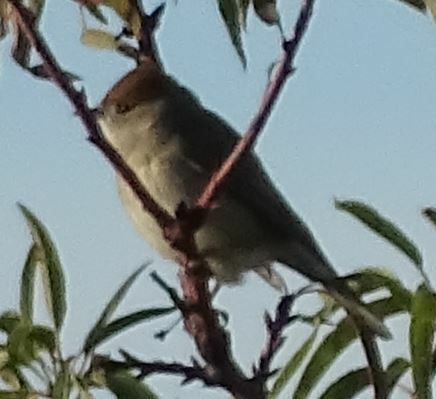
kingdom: Animalia
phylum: Chordata
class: Aves
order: Passeriformes
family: Sylviidae
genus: Sylvia
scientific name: Sylvia atricapilla
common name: Eurasian blackcap
